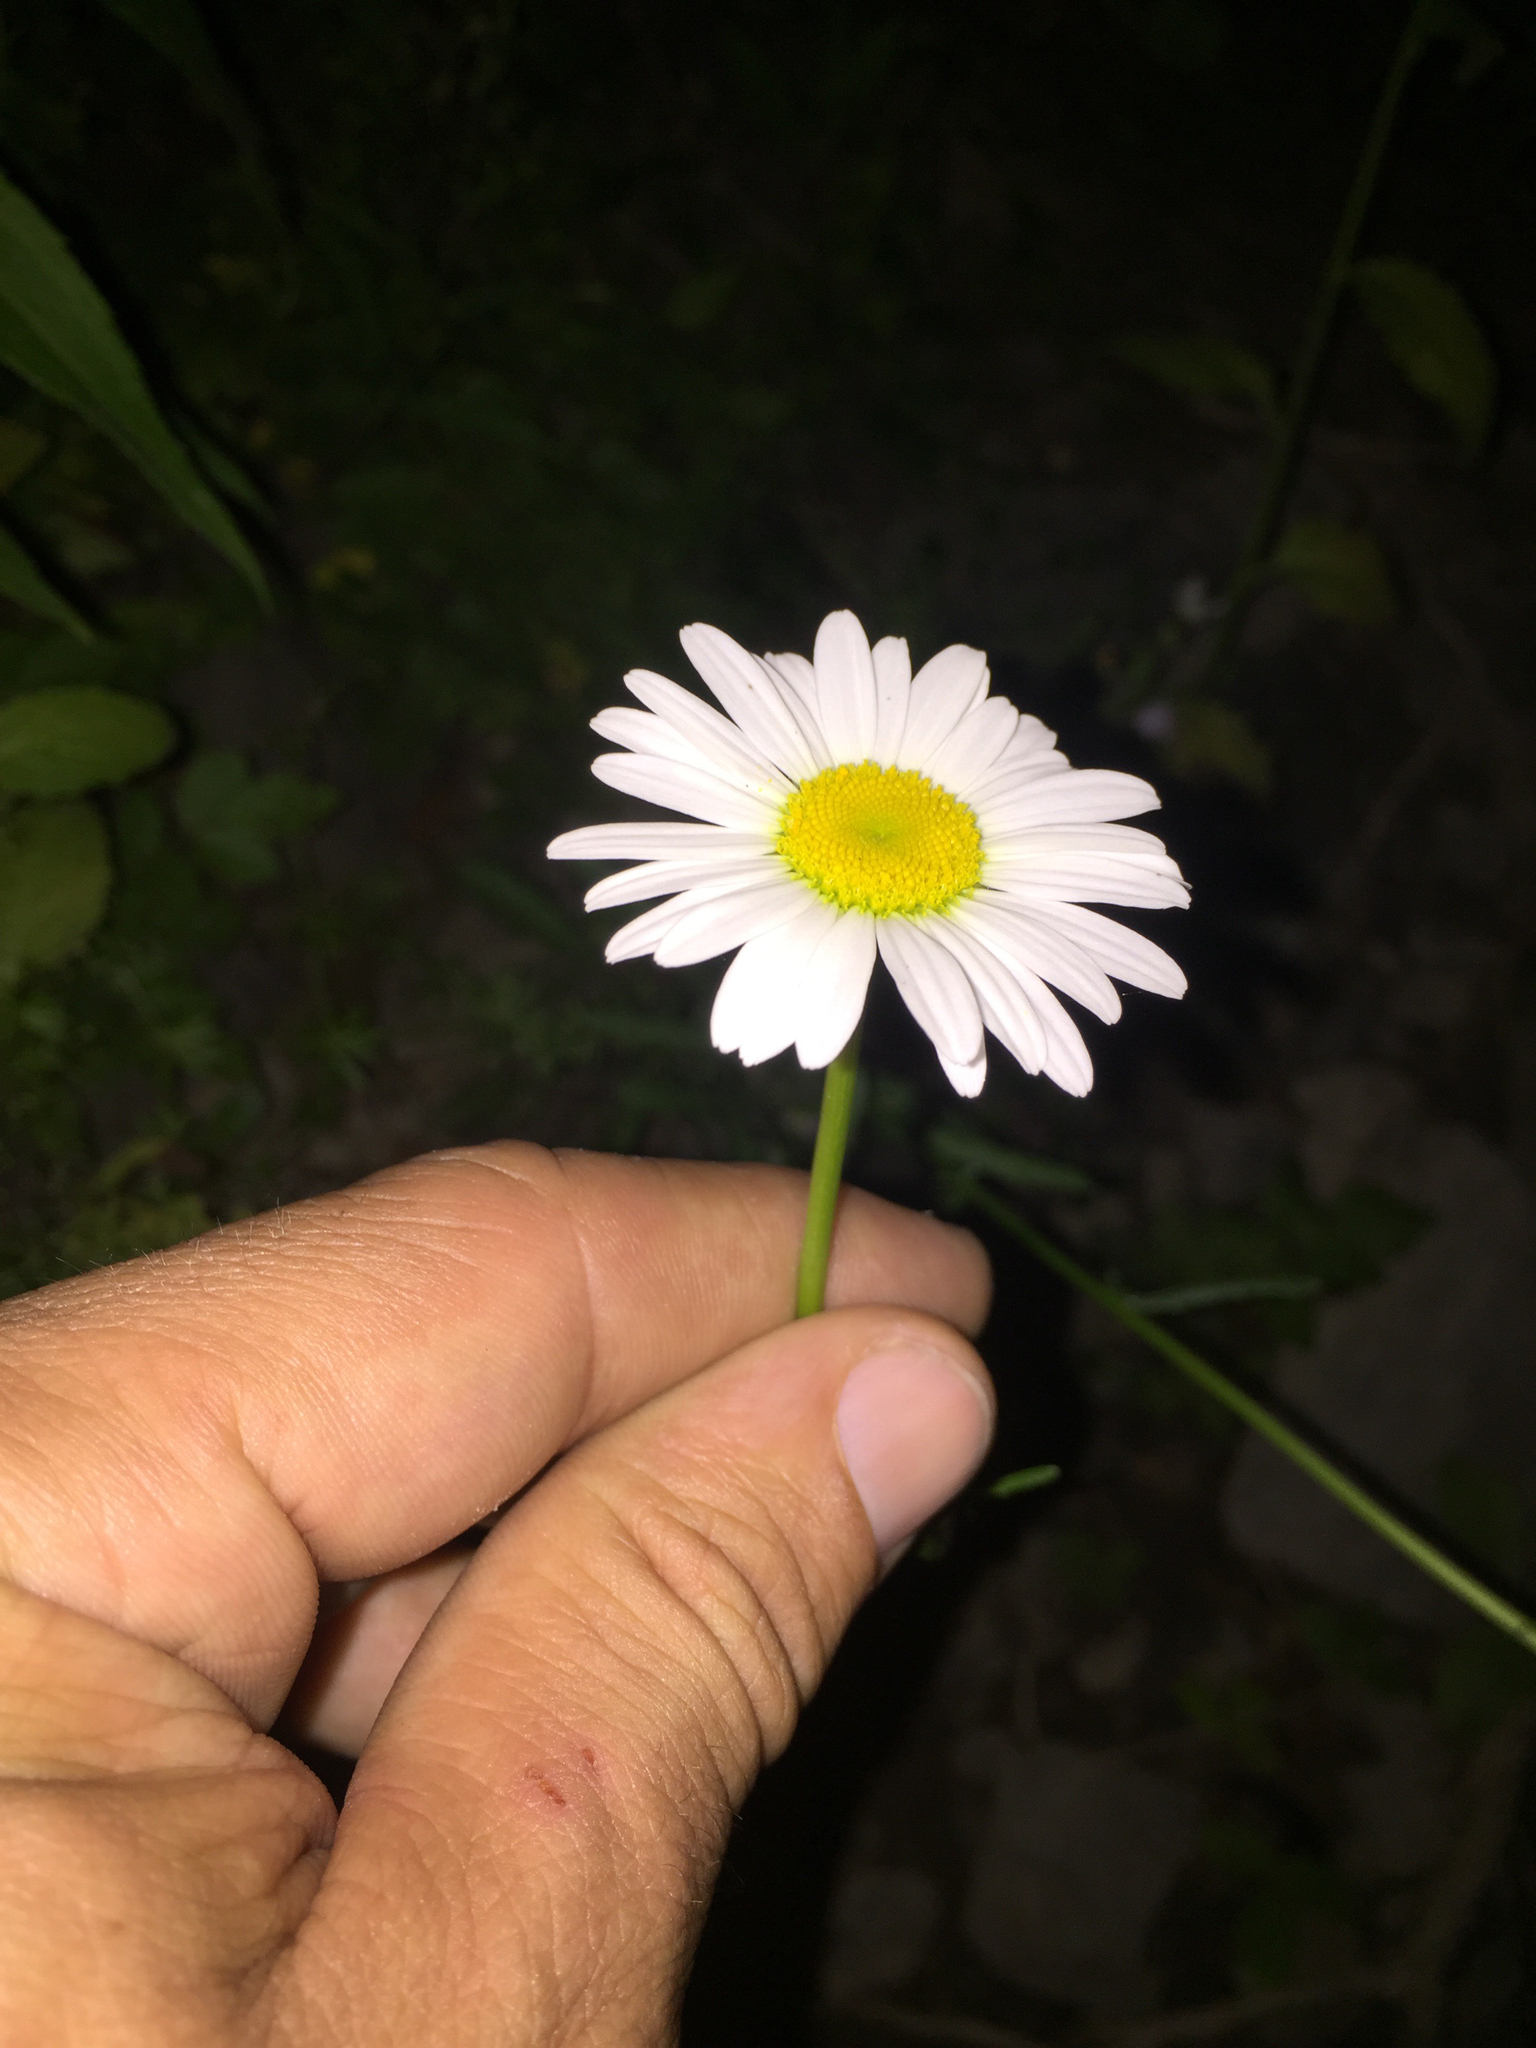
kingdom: Plantae
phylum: Tracheophyta
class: Magnoliopsida
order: Asterales
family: Asteraceae
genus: Leucanthemum
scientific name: Leucanthemum vulgare
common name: Oxeye daisy
